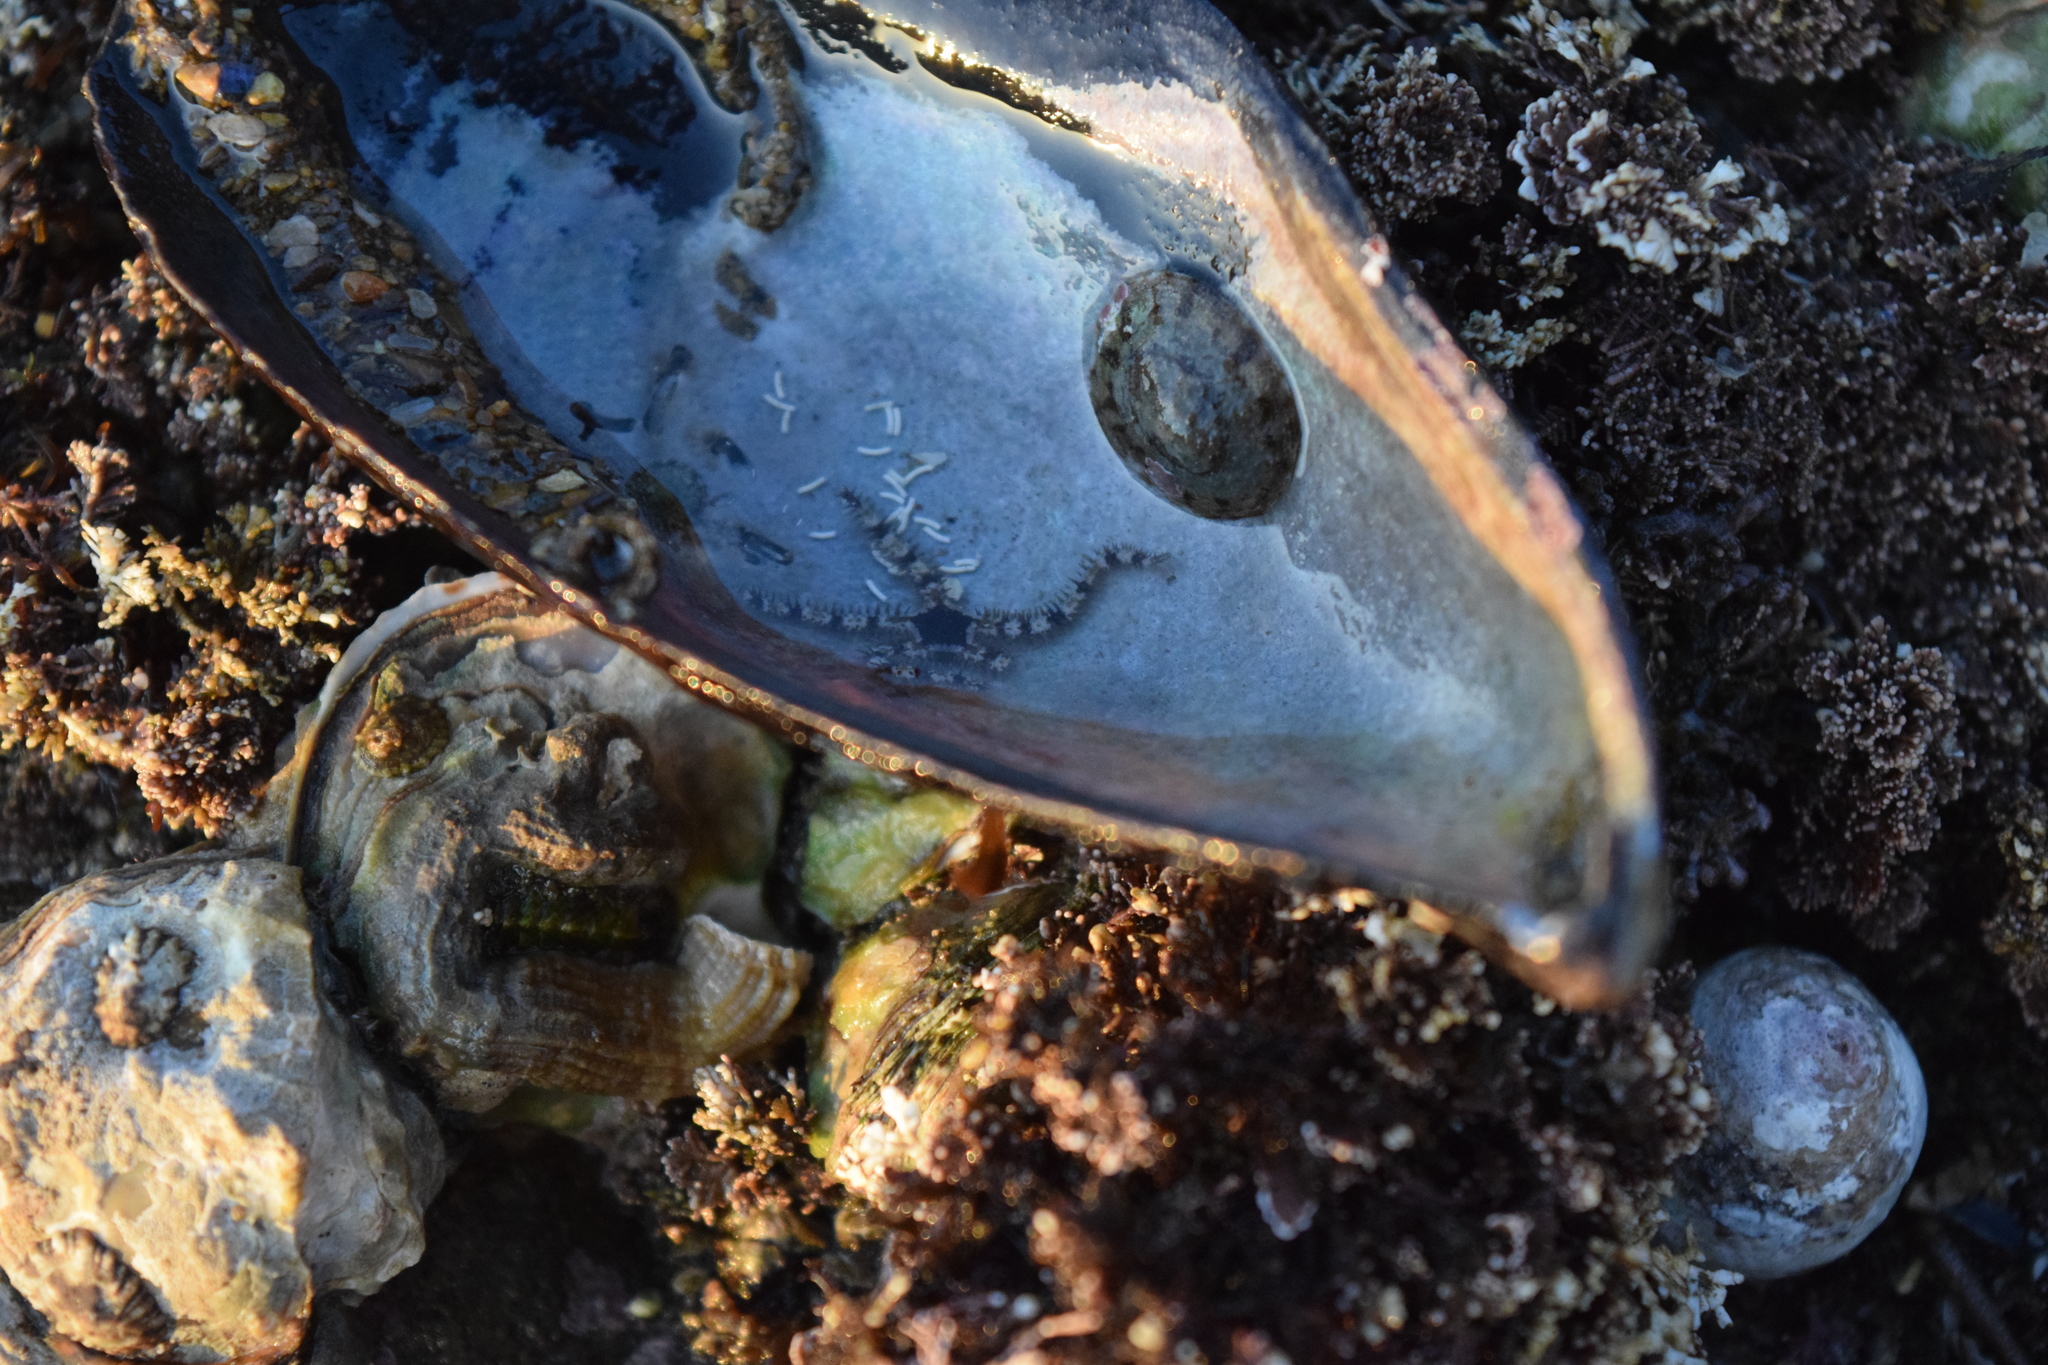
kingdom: Animalia
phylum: Echinodermata
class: Ophiuroidea
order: Ophiacanthida
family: Ophiopteridae
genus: Ophiopteris
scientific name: Ophiopteris papillosa
